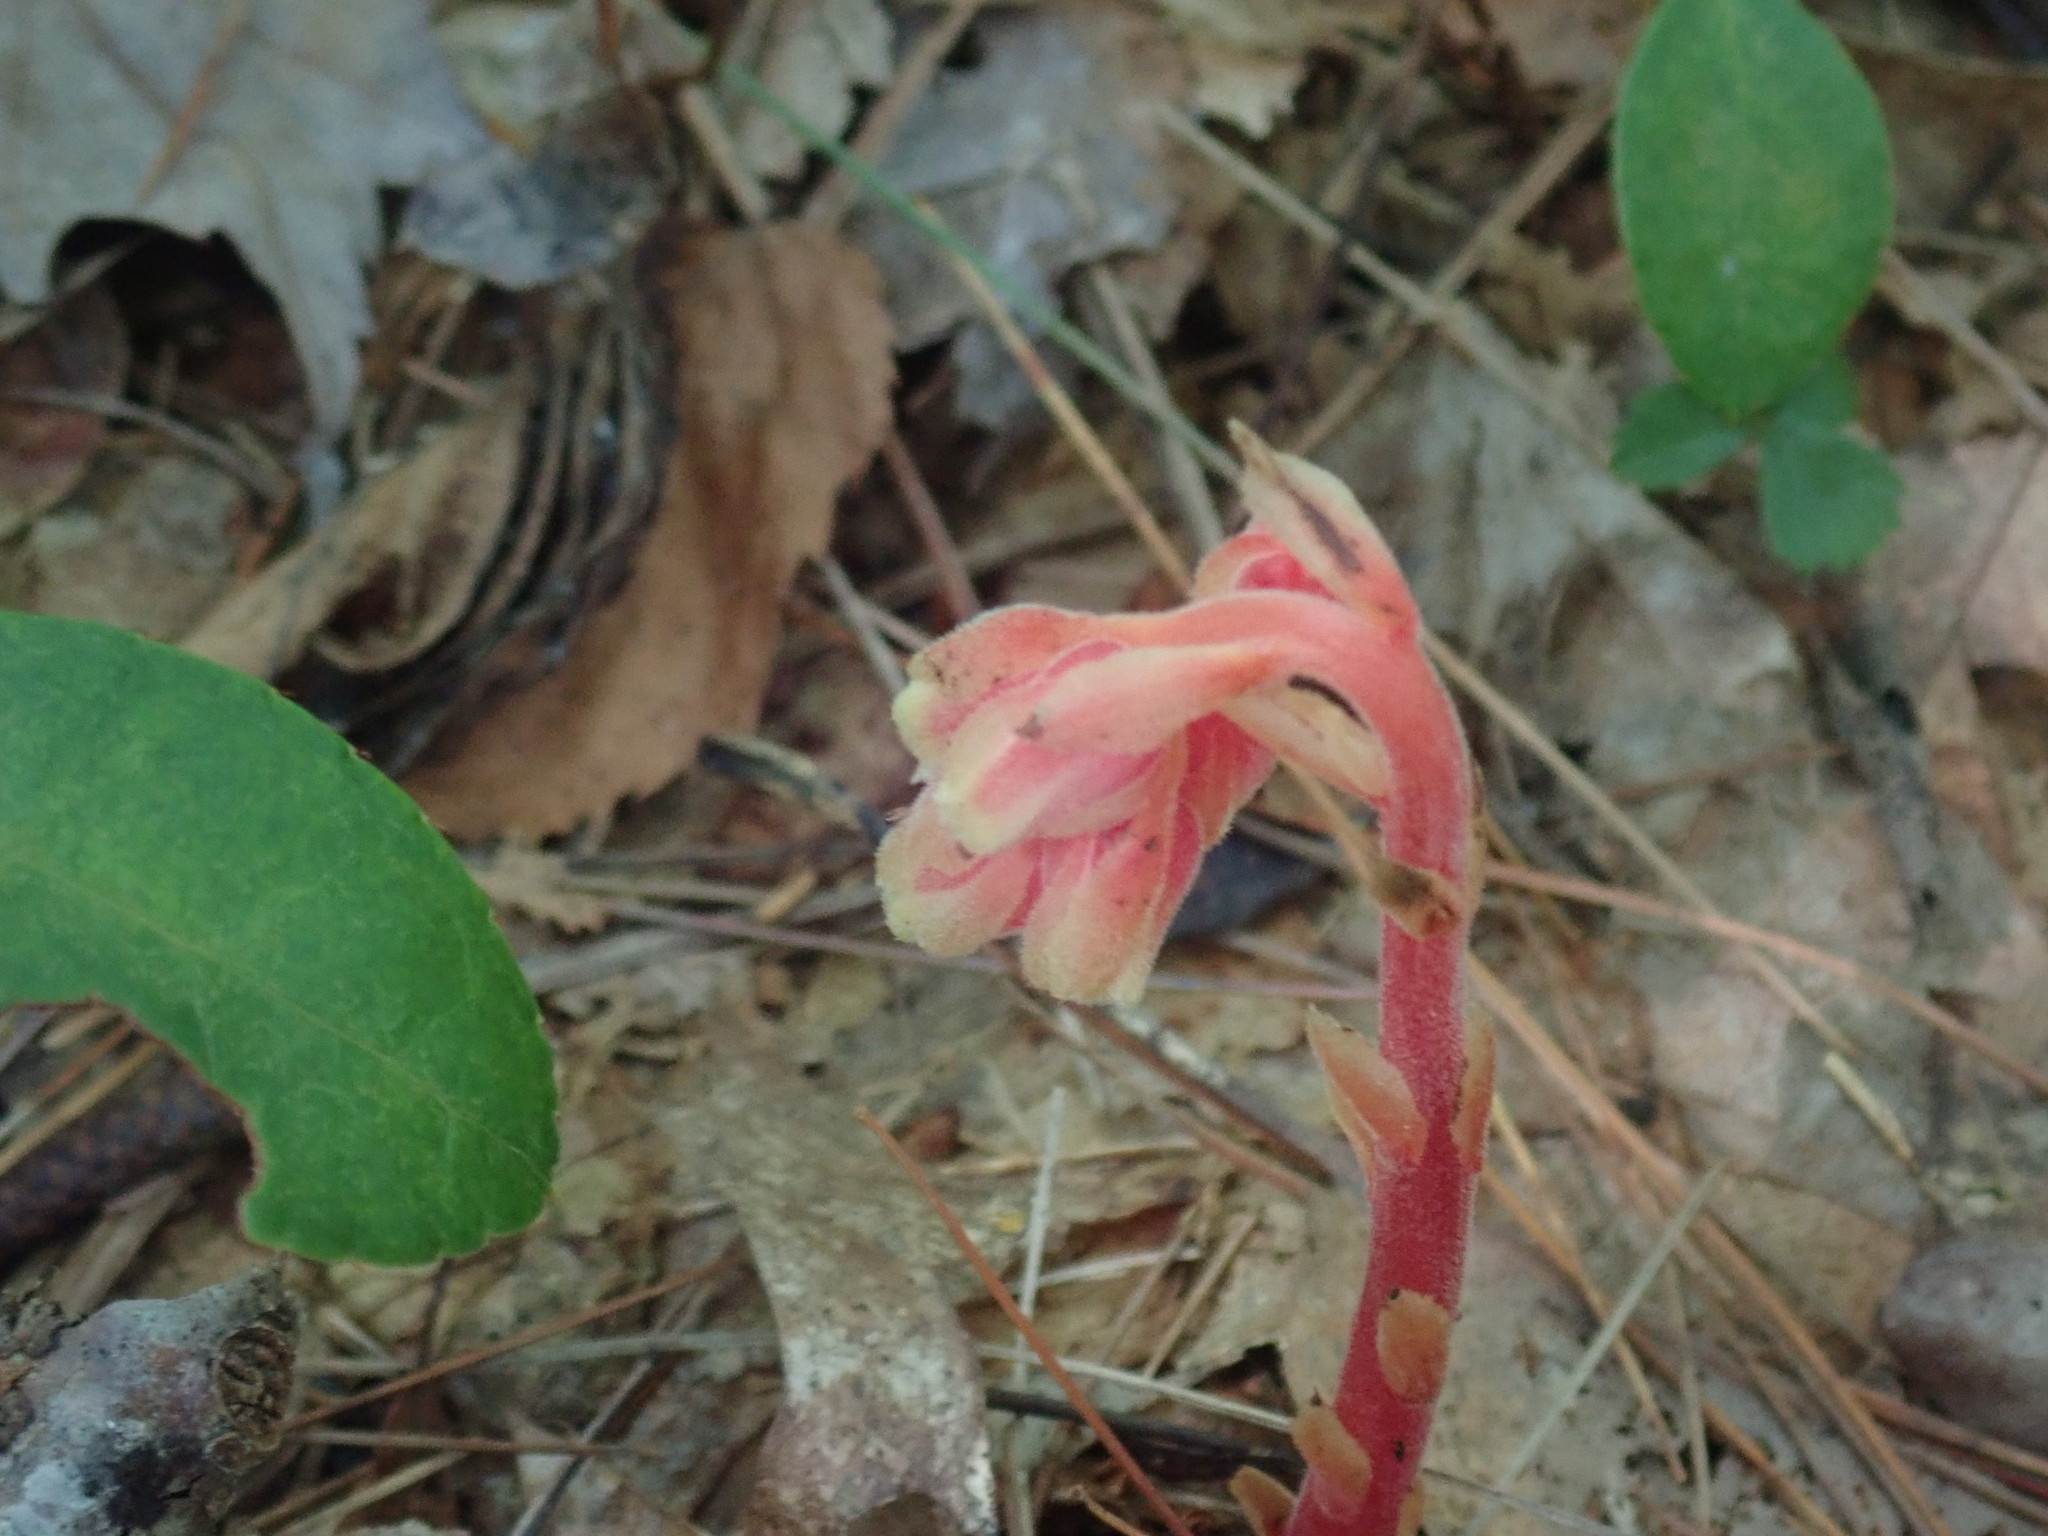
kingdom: Plantae
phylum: Tracheophyta
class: Magnoliopsida
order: Ericales
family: Ericaceae
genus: Hypopitys
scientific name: Hypopitys monotropa
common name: Yellow bird's-nest
